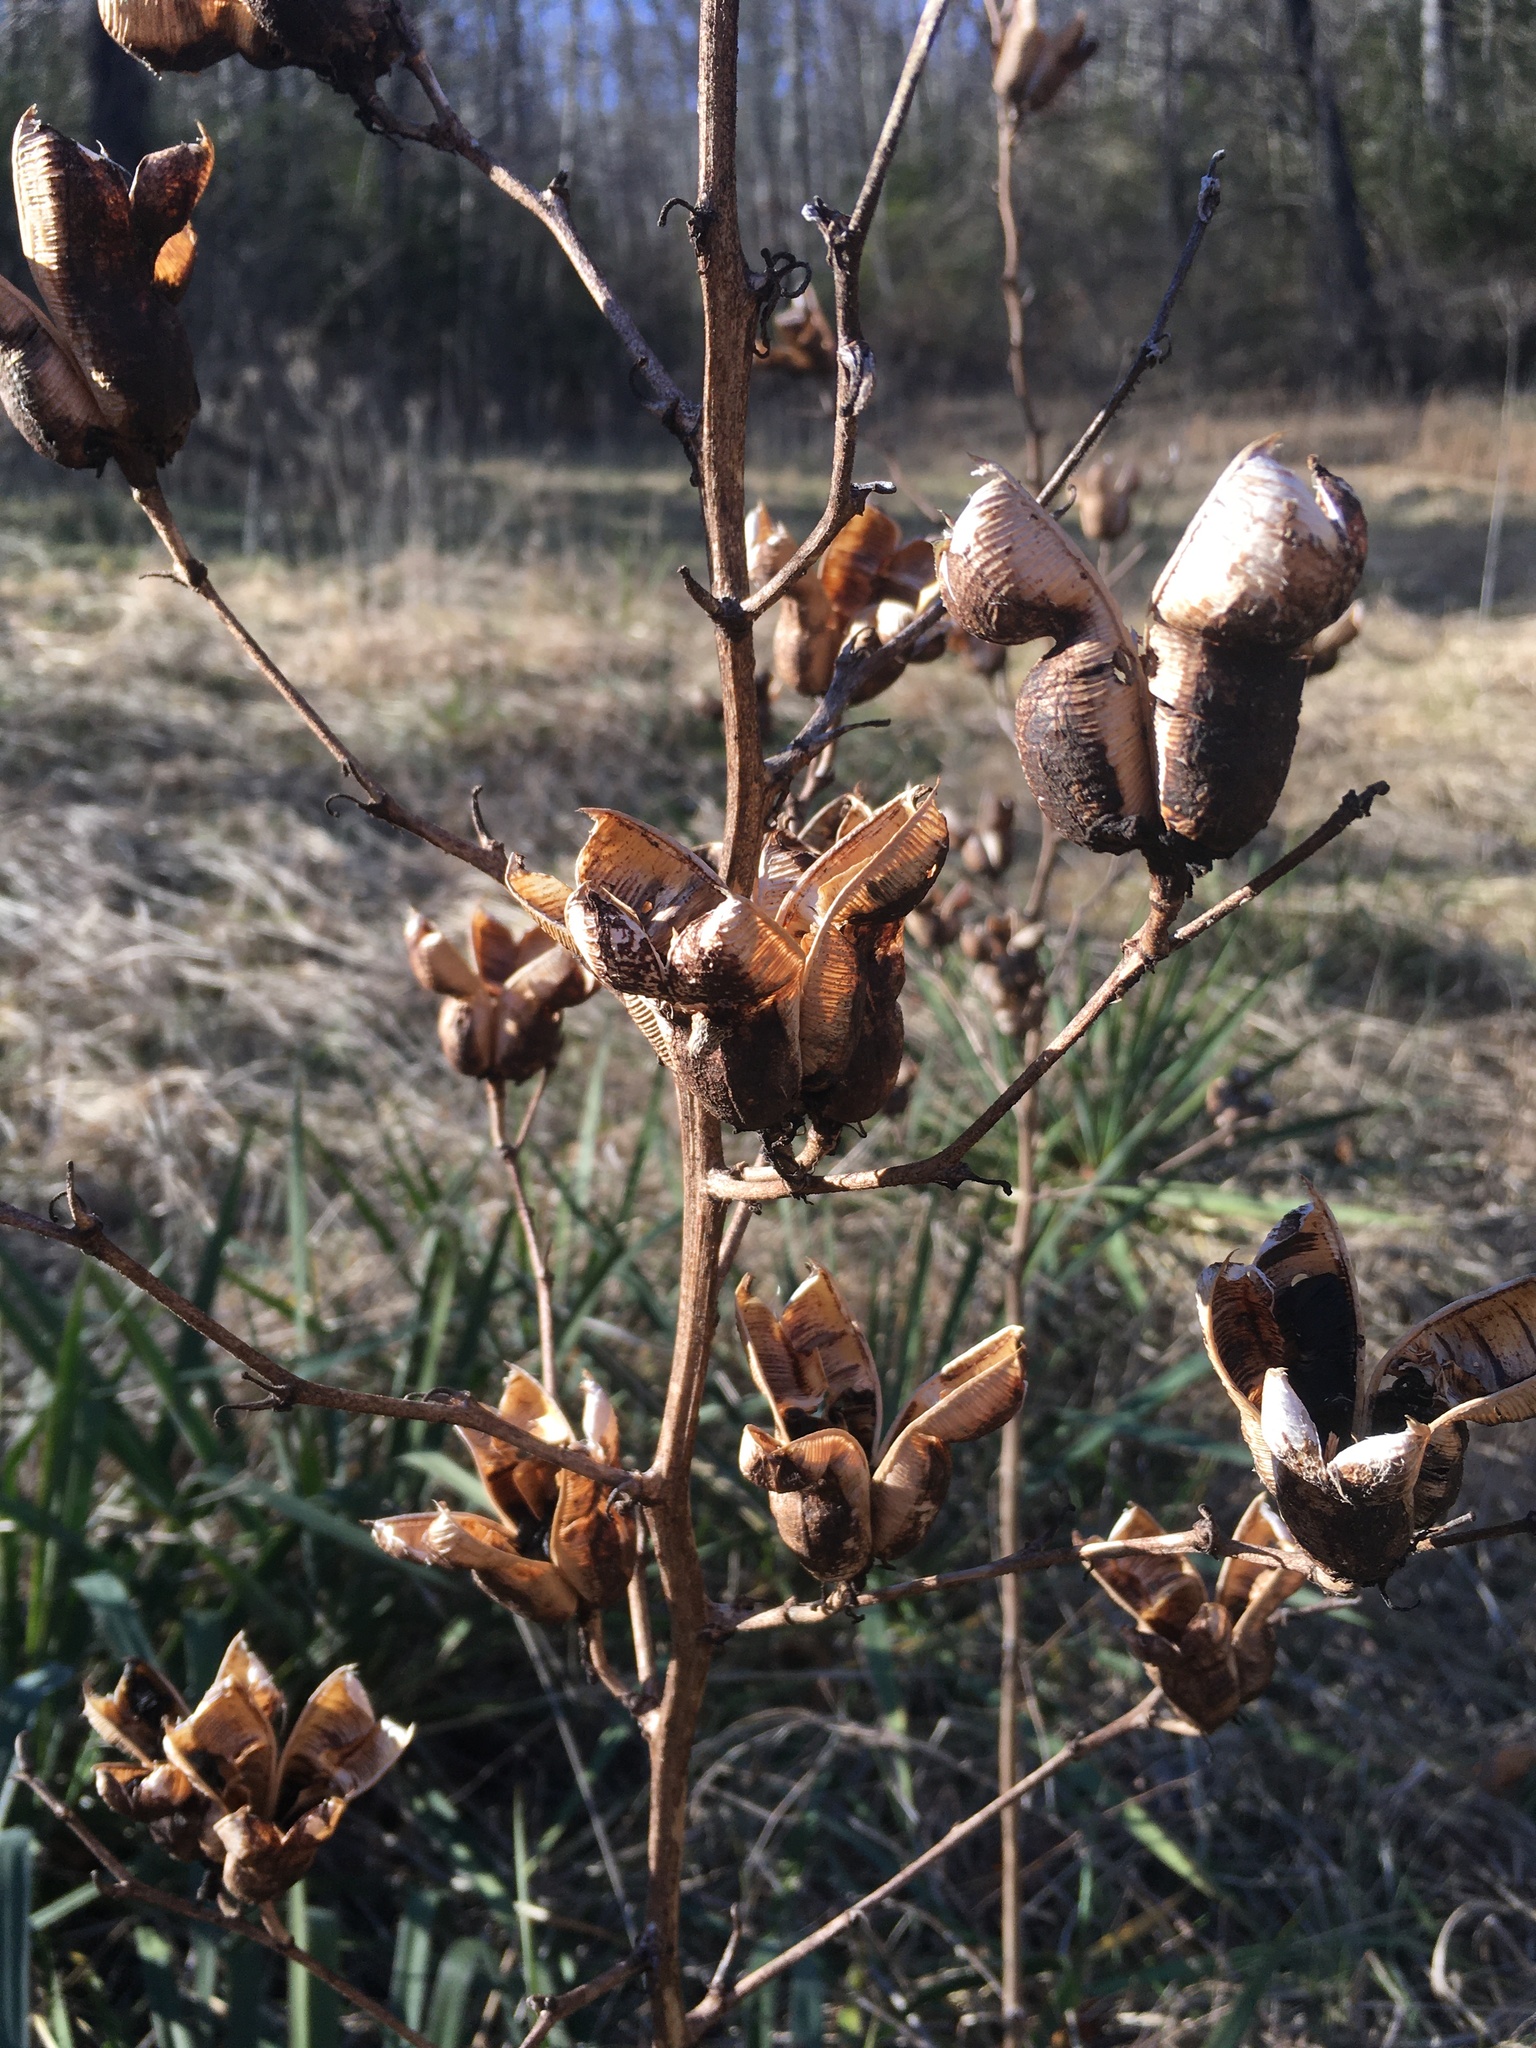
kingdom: Plantae
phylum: Tracheophyta
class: Liliopsida
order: Asparagales
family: Asparagaceae
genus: Yucca
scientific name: Yucca filamentosa
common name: Adam's-needle
